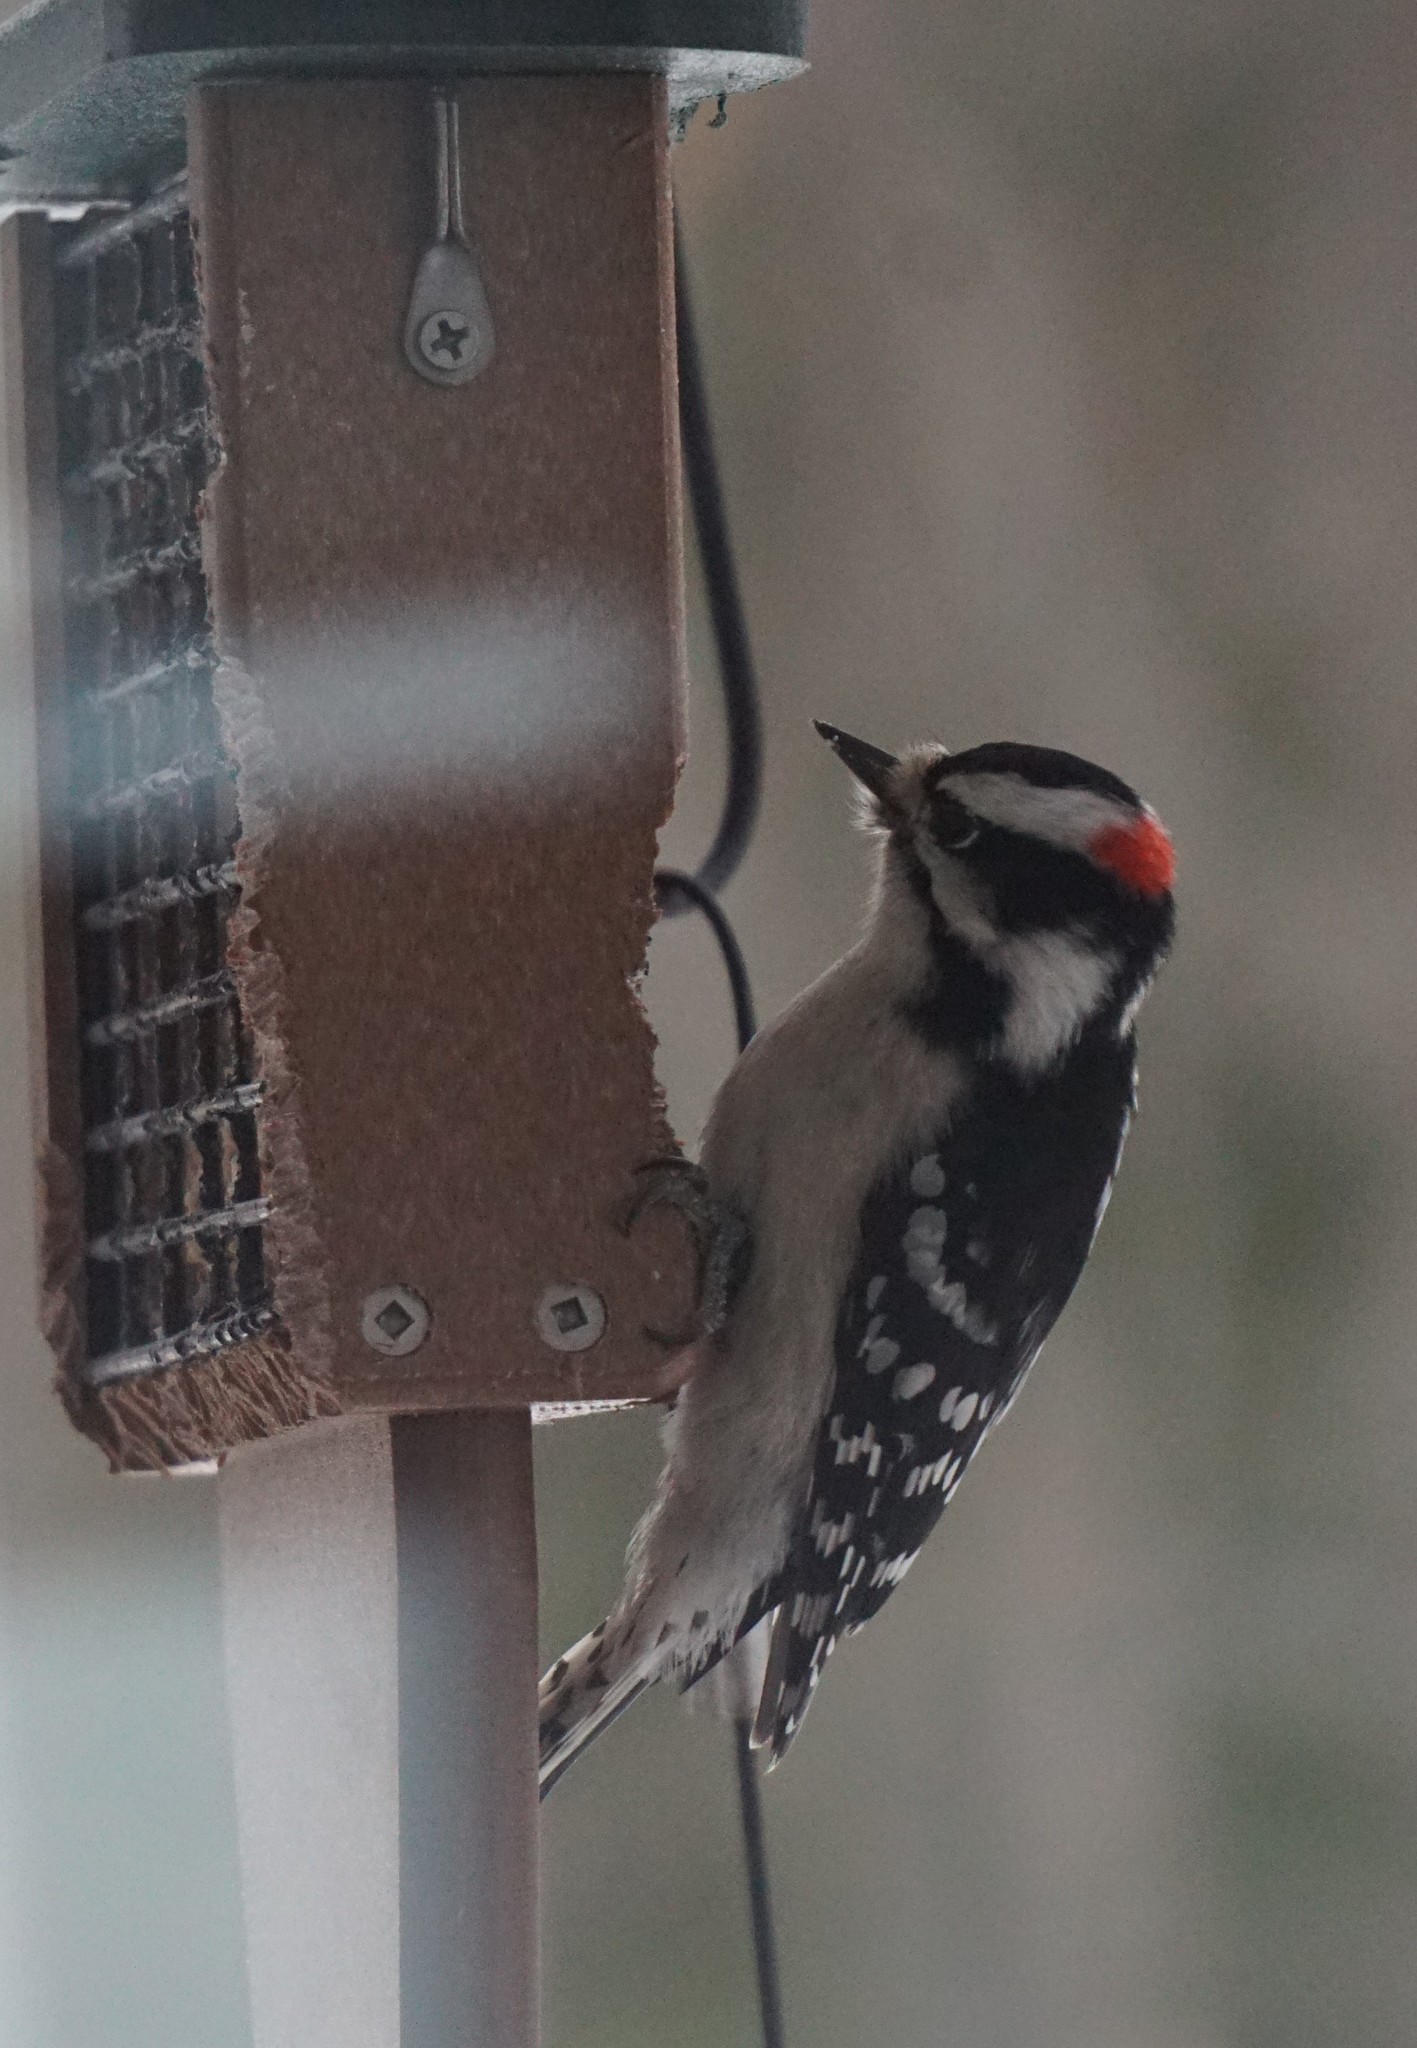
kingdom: Animalia
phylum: Chordata
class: Aves
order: Piciformes
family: Picidae
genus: Dryobates
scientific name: Dryobates pubescens
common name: Downy woodpecker
